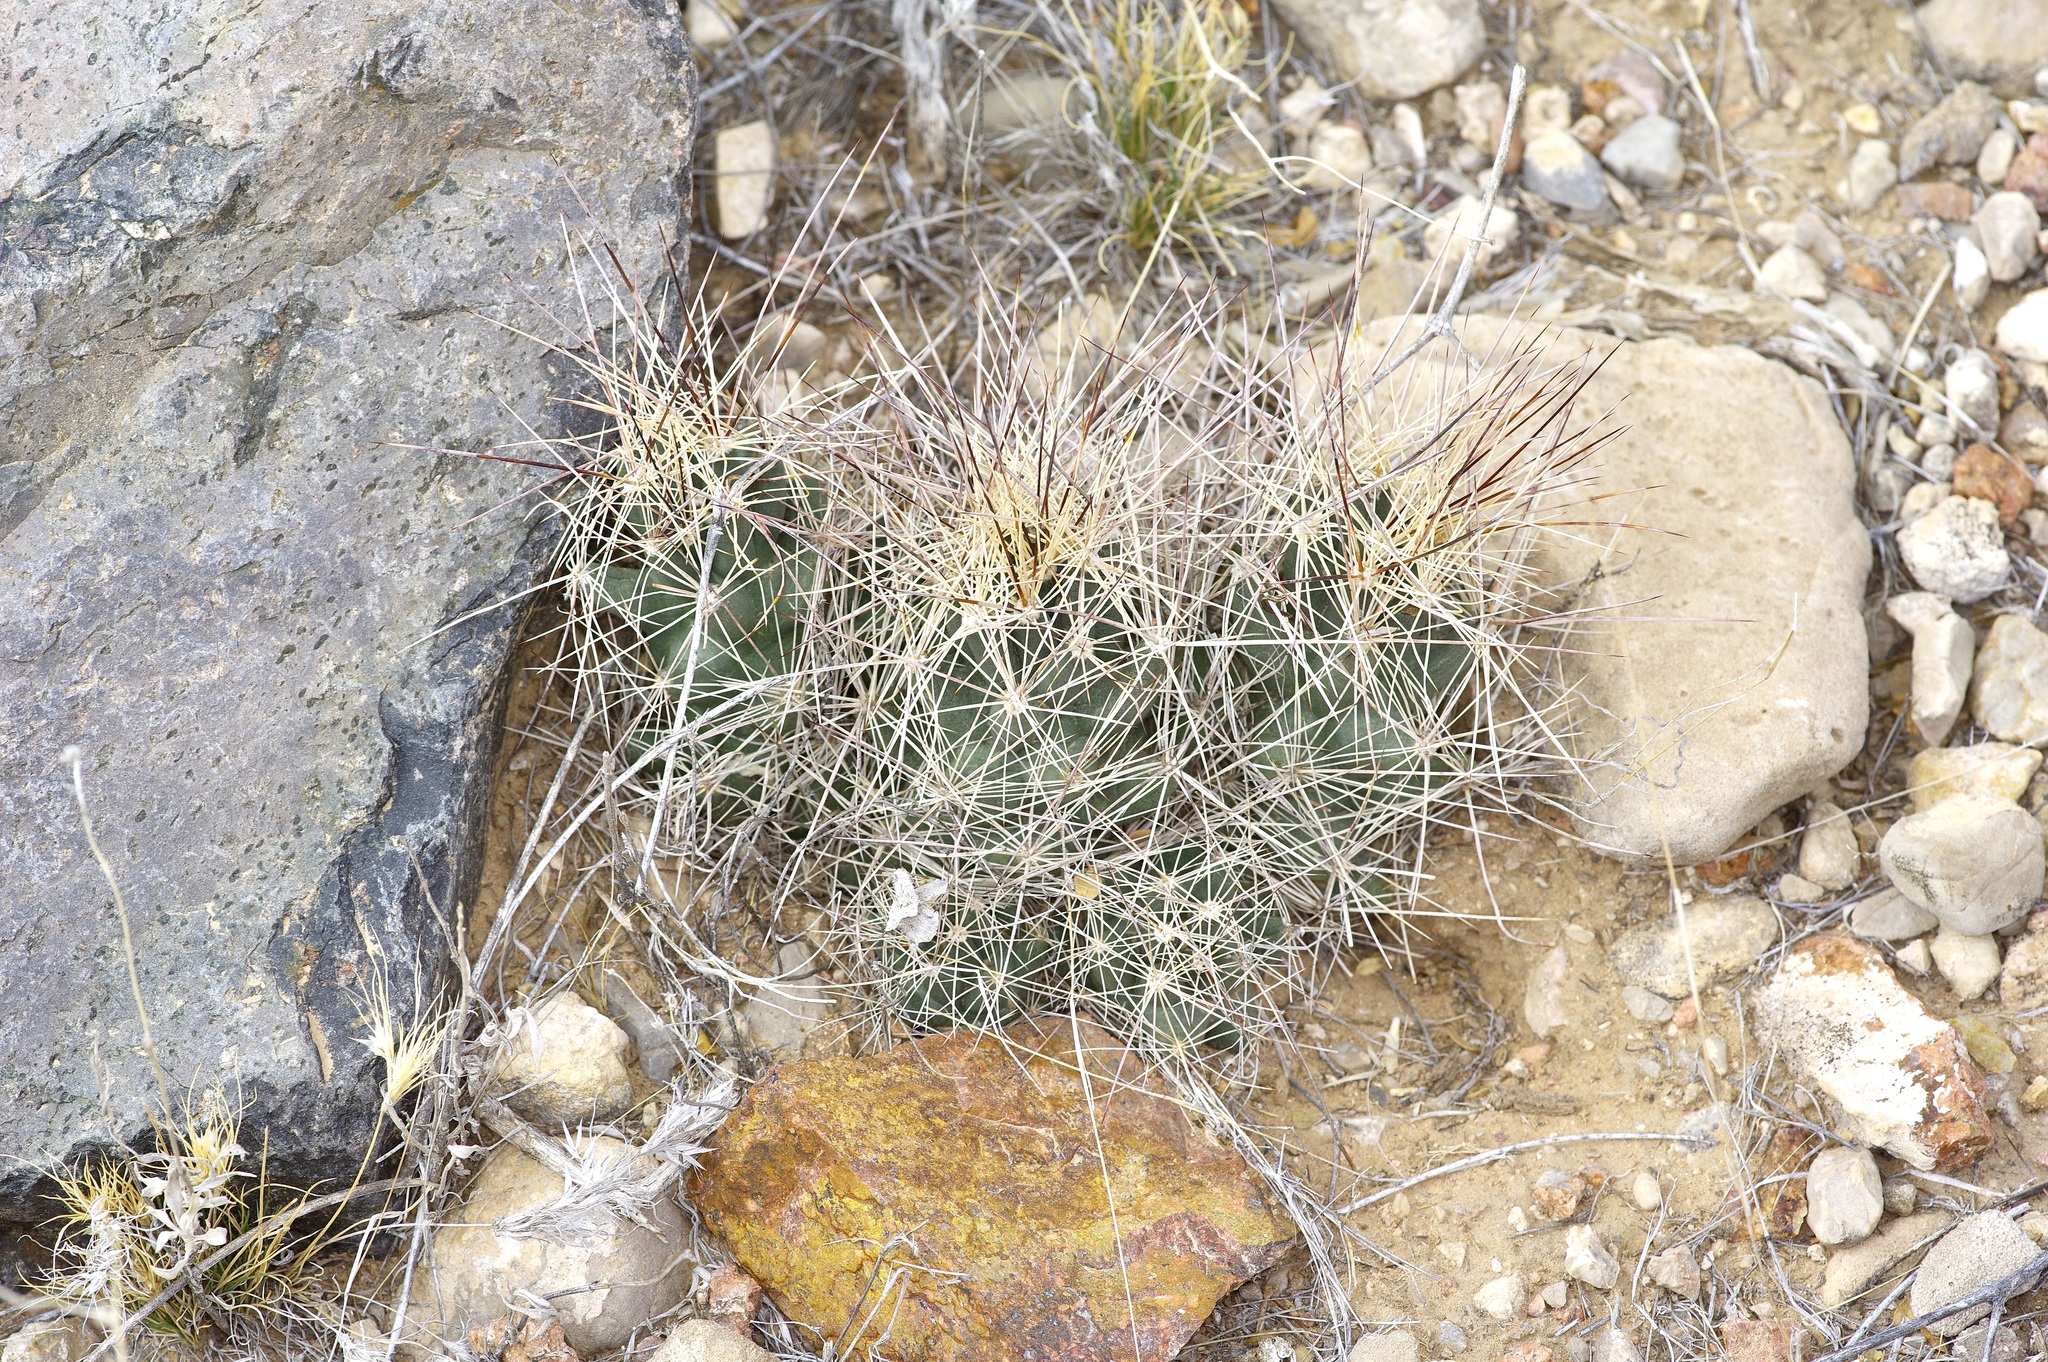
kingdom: Plantae
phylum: Tracheophyta
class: Magnoliopsida
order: Caryophyllales
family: Cactaceae
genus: Coryphantha
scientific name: Coryphantha macromeris
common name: Nipple beehive cactus
